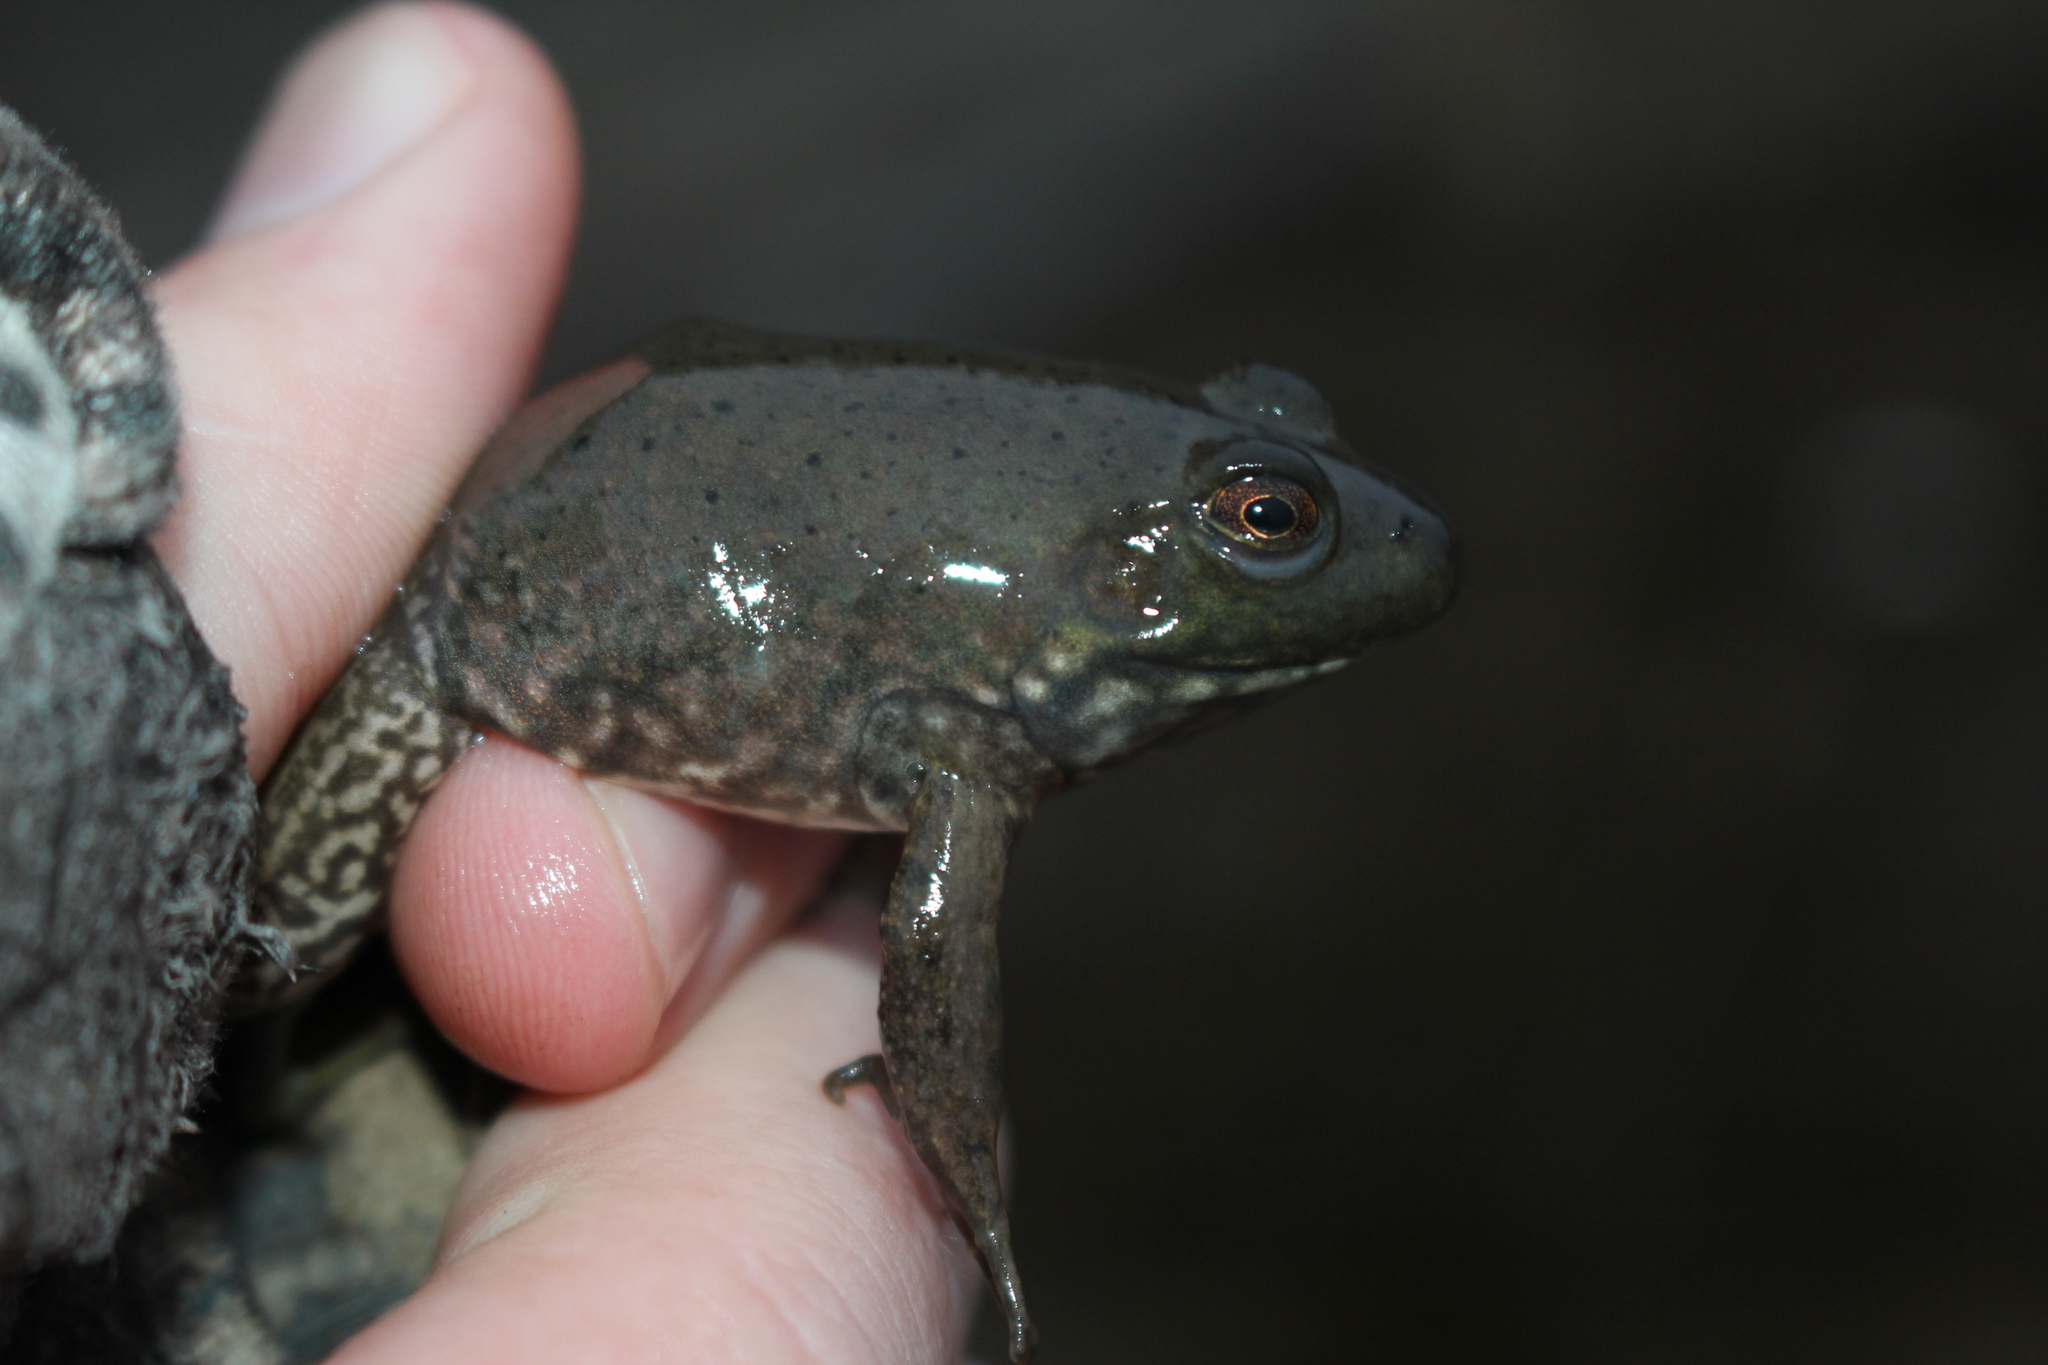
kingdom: Animalia
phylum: Chordata
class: Amphibia
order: Anura
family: Ranidae
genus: Lithobates
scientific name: Lithobates catesbeianus
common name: American bullfrog
